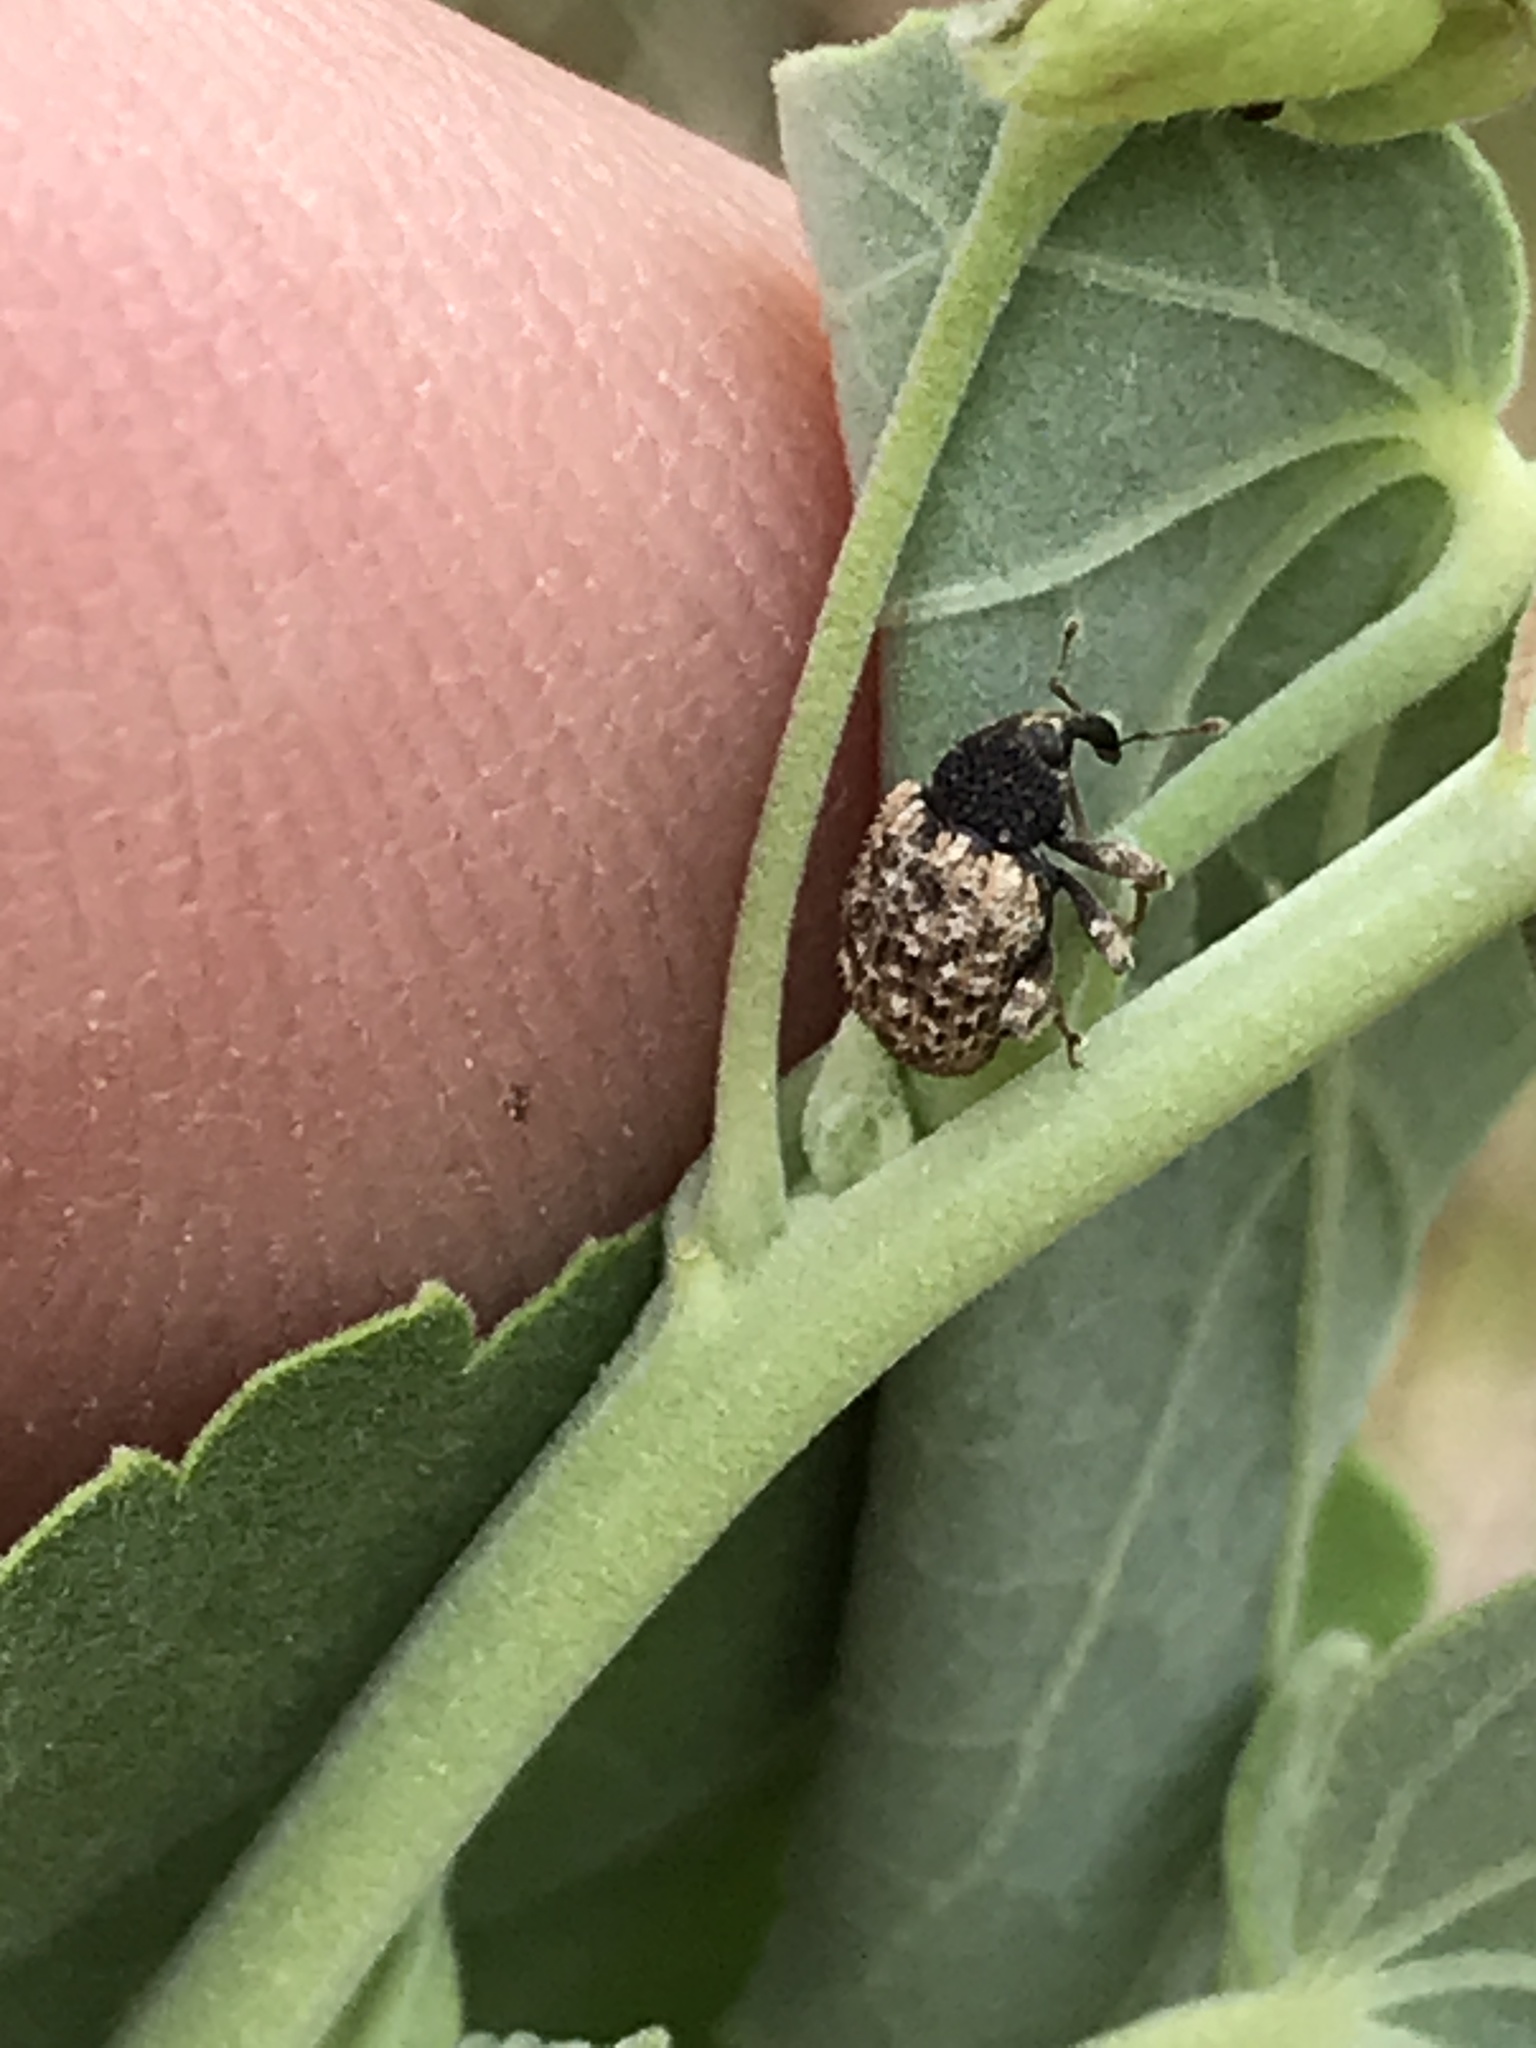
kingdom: Animalia
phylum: Arthropoda
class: Insecta
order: Coleoptera
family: Curculionidae
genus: Pheloconus
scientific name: Pheloconus cribricollis
